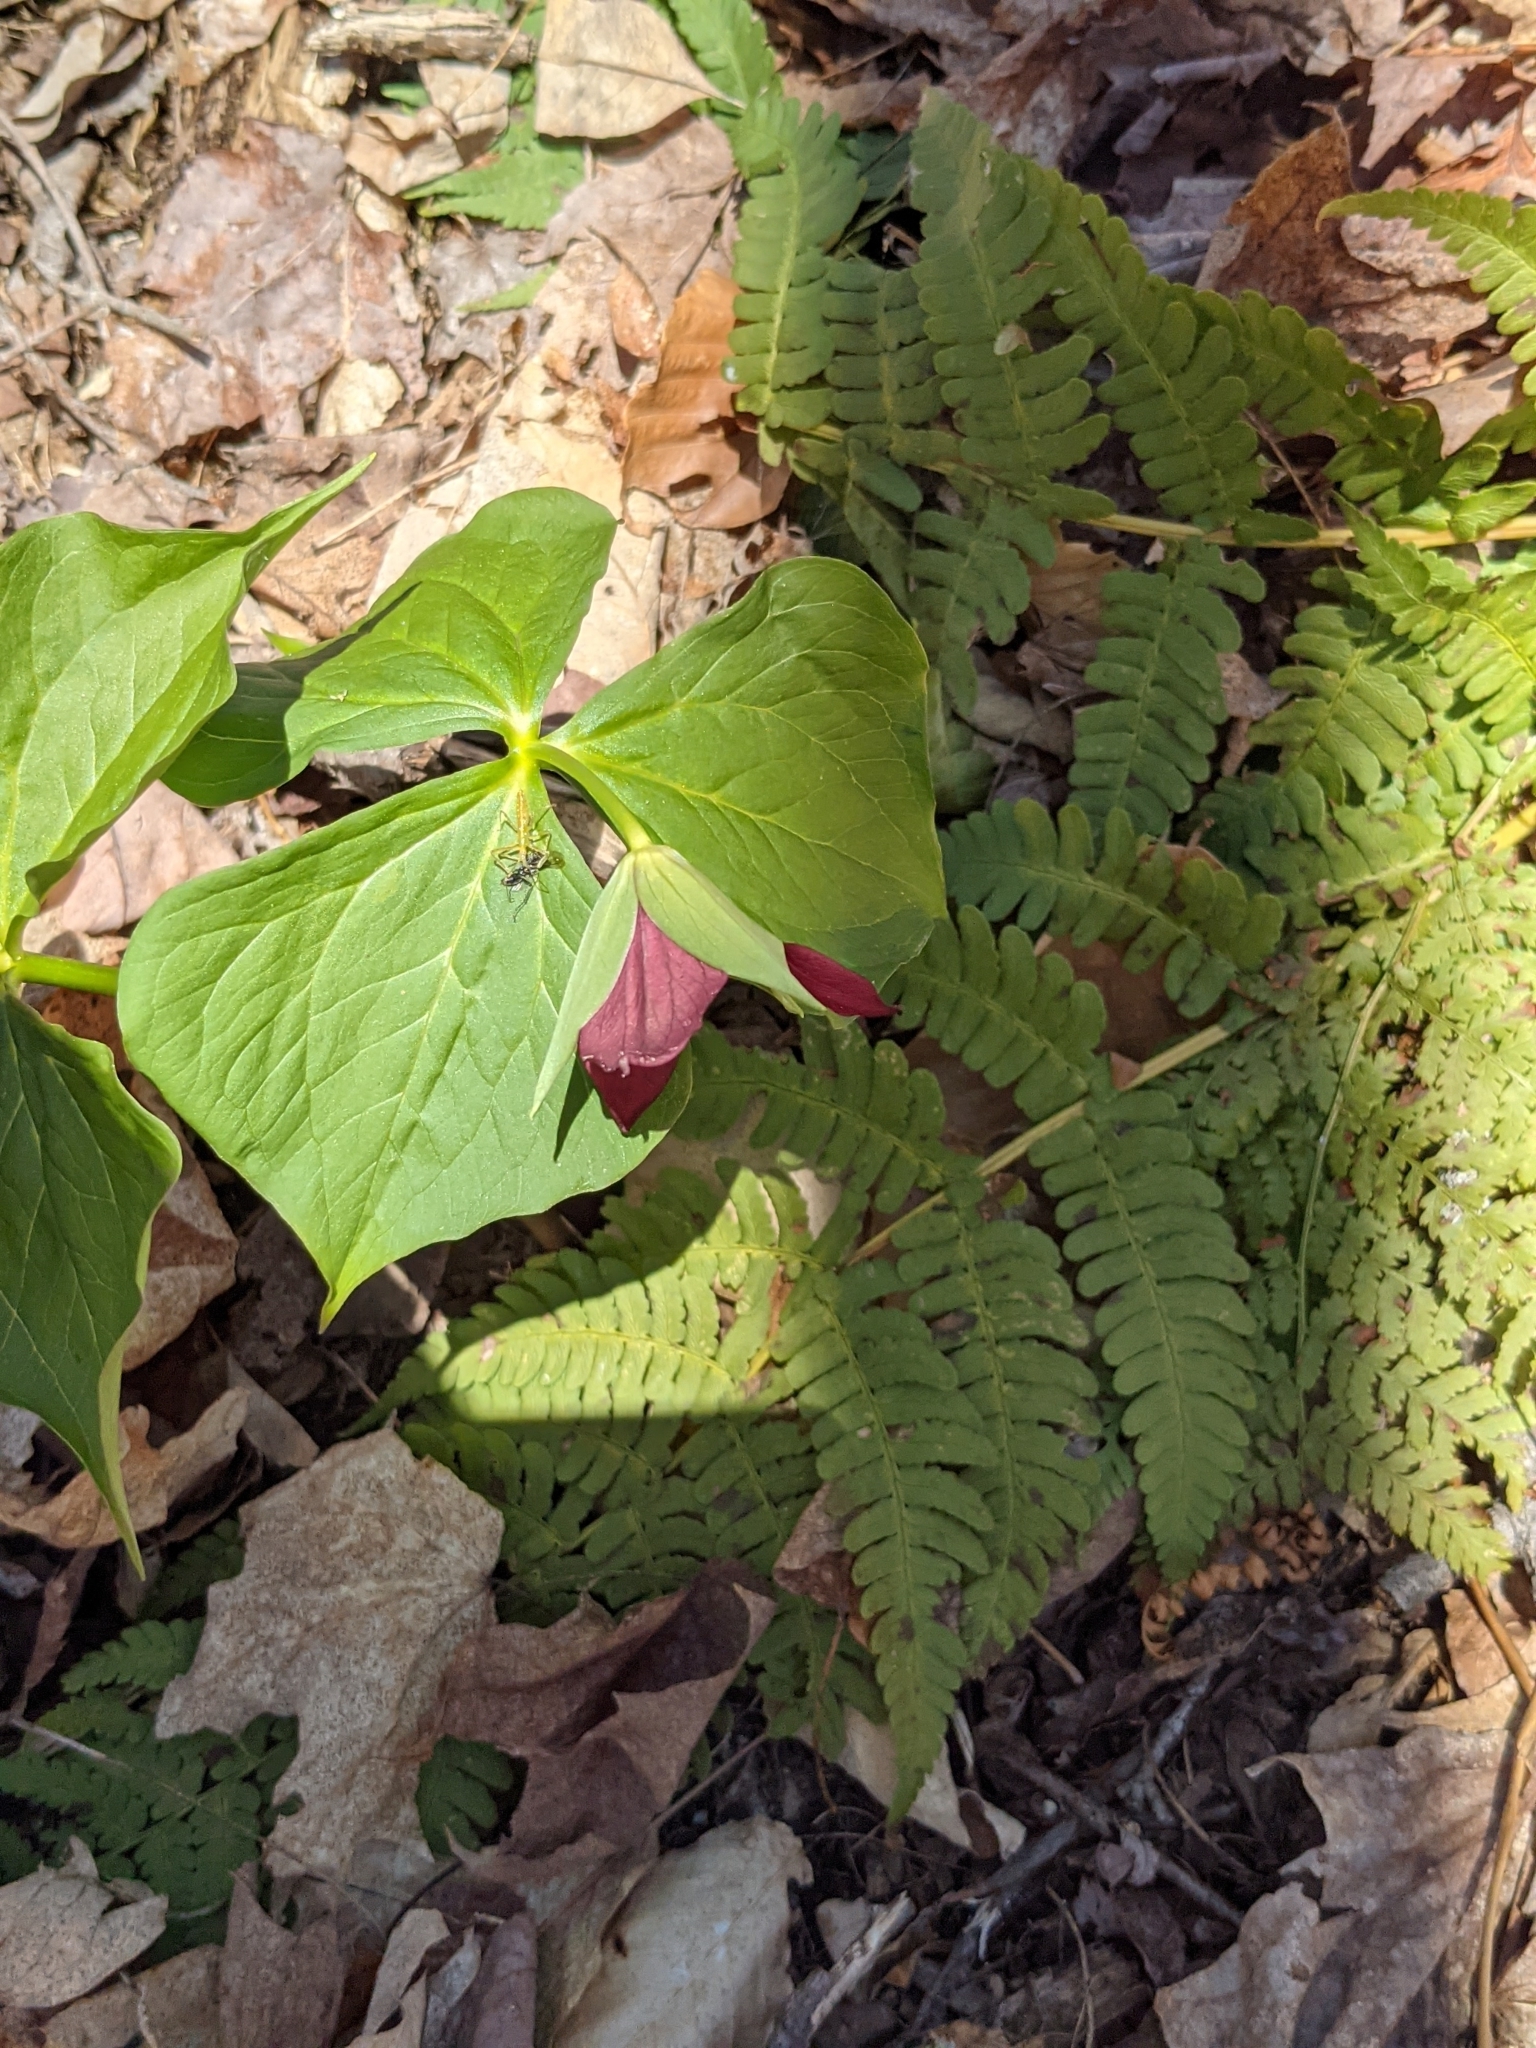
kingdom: Plantae
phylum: Tracheophyta
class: Liliopsida
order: Liliales
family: Melanthiaceae
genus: Trillium
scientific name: Trillium erectum
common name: Purple trillium
